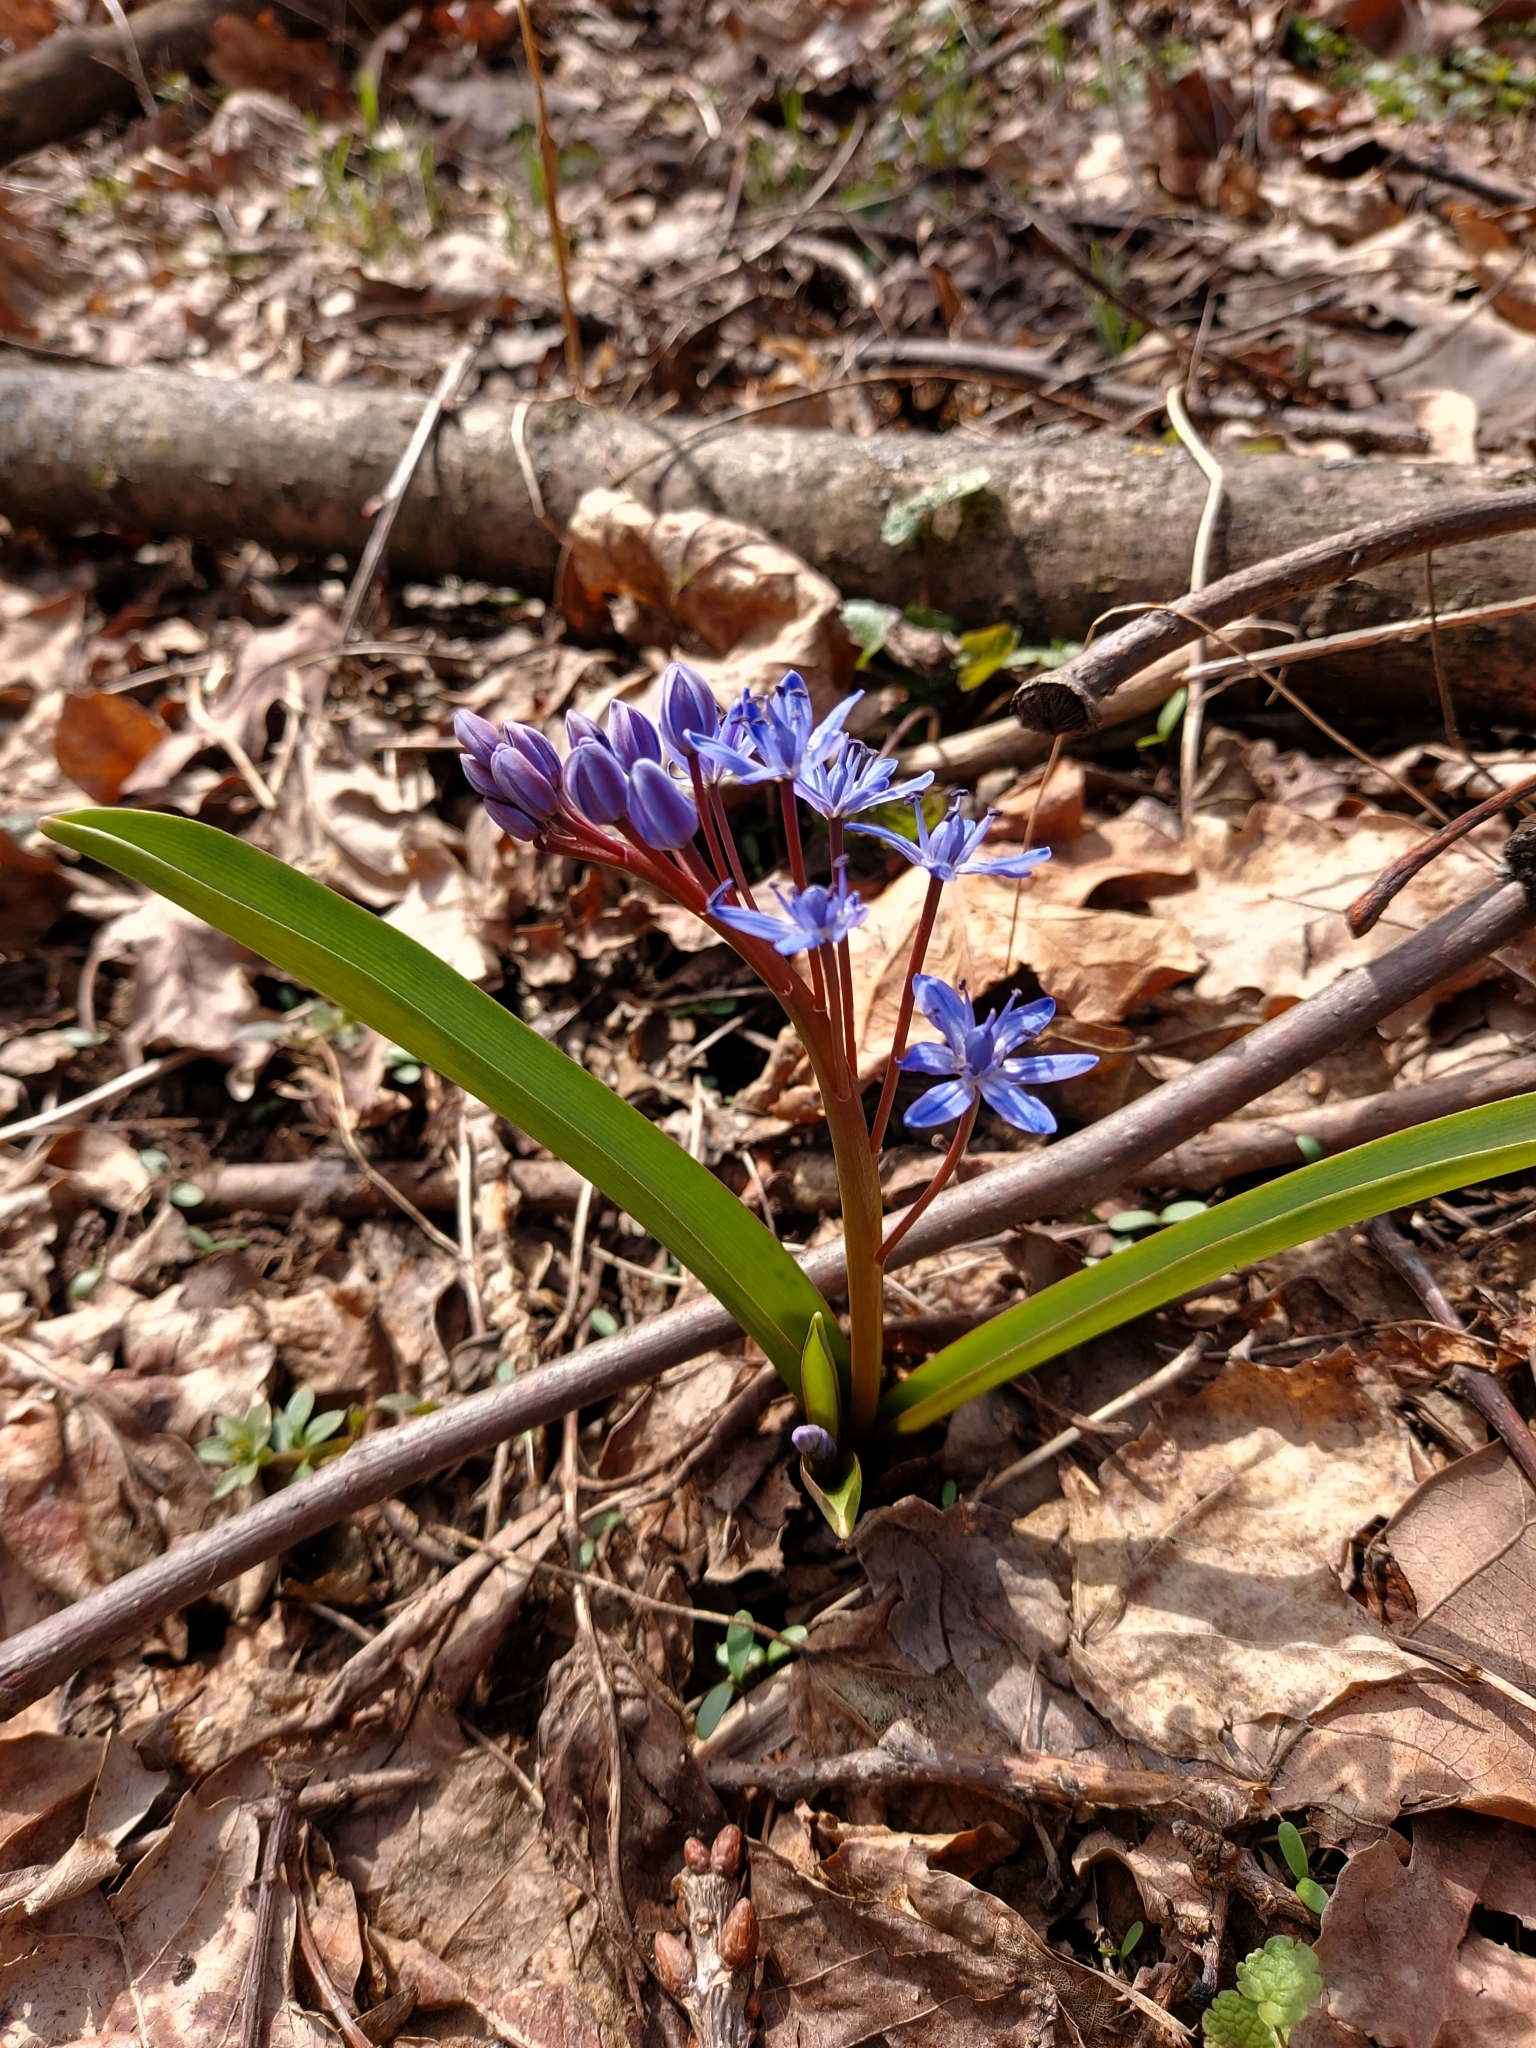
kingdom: Plantae
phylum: Tracheophyta
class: Liliopsida
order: Asparagales
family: Asparagaceae
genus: Scilla
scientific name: Scilla bifolia
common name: Alpine squill
